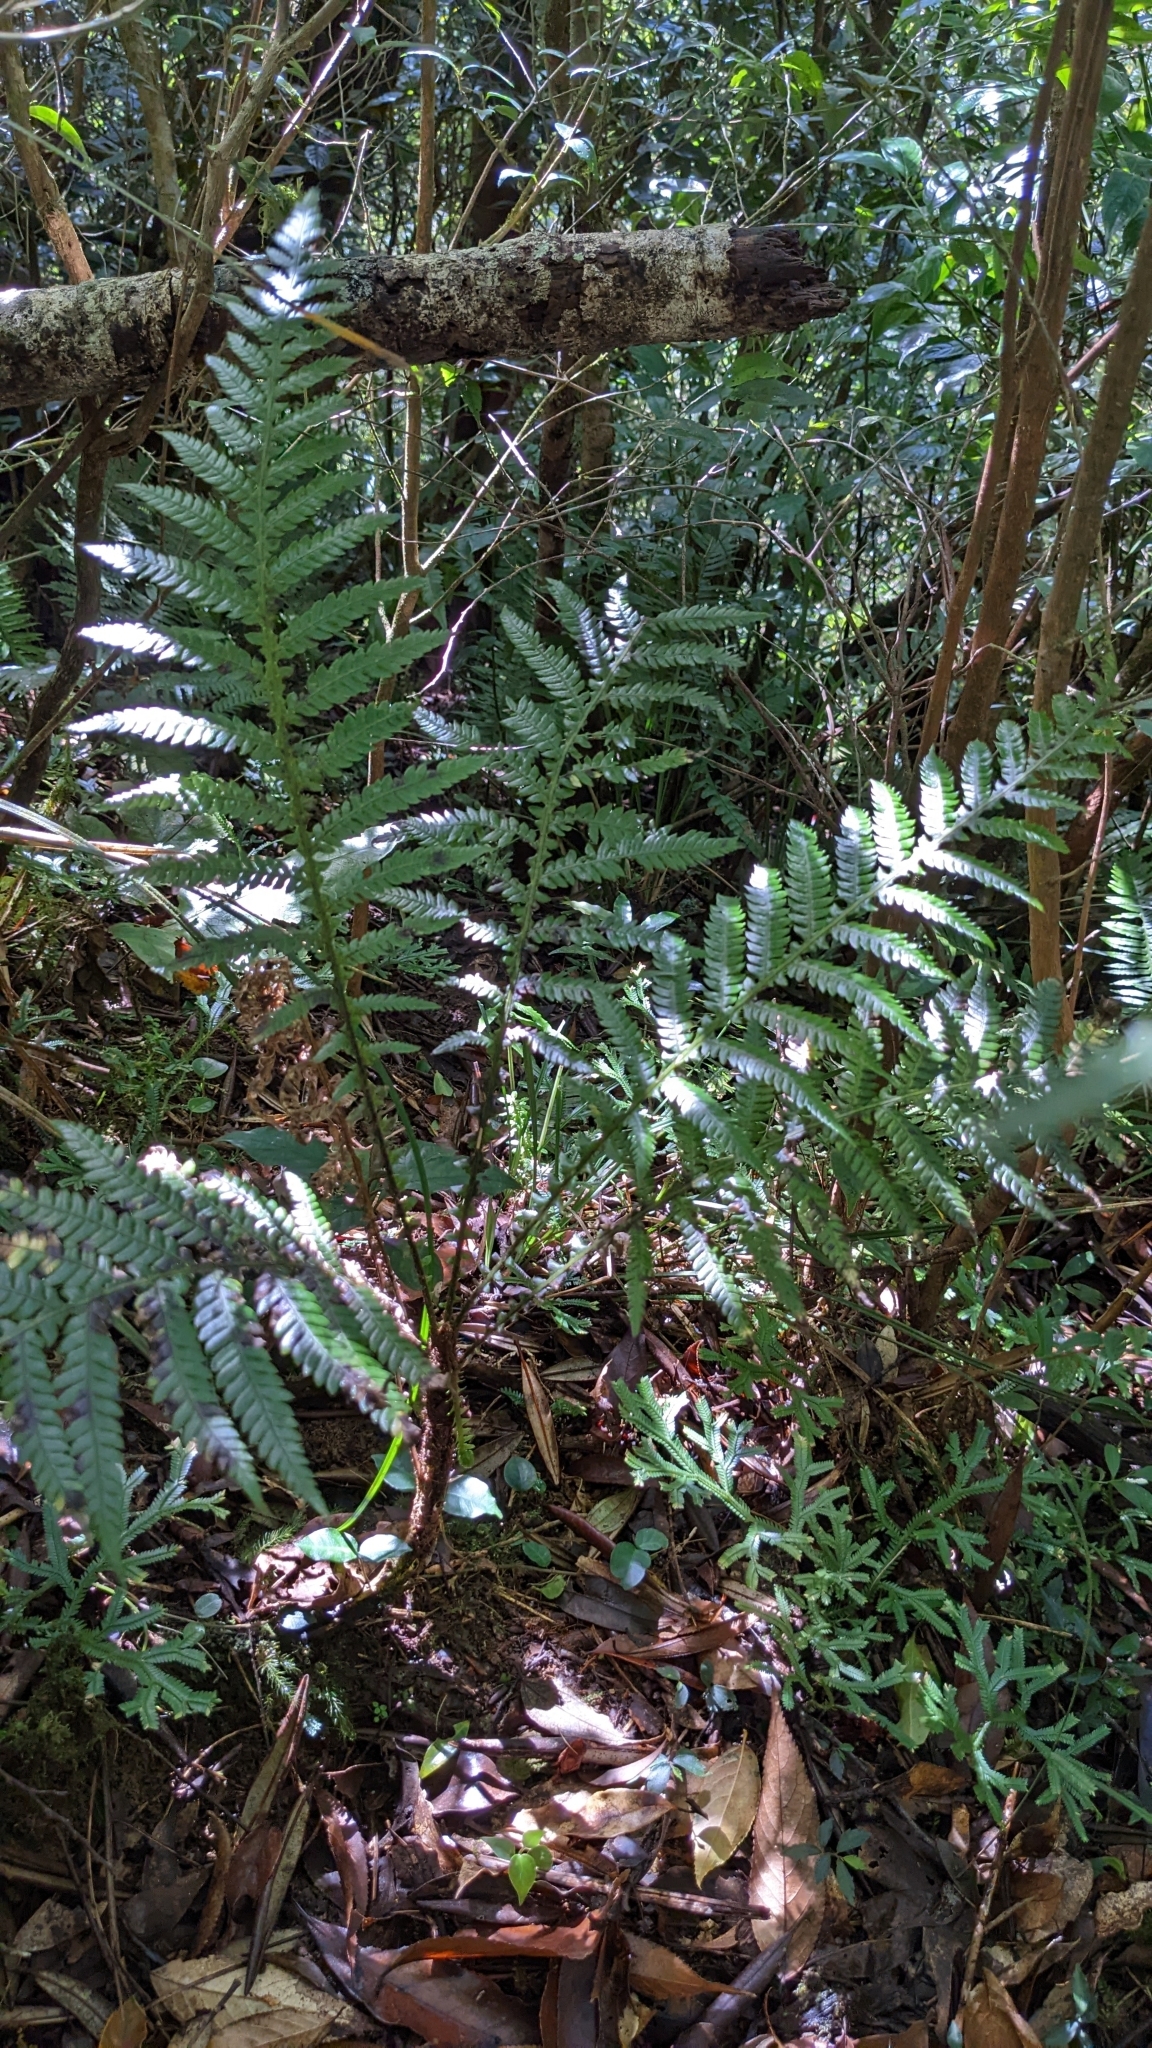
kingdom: Plantae
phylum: Tracheophyta
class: Polypodiopsida
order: Polypodiales
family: Blechnaceae
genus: Diploblechnum
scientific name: Diploblechnum fraseri
